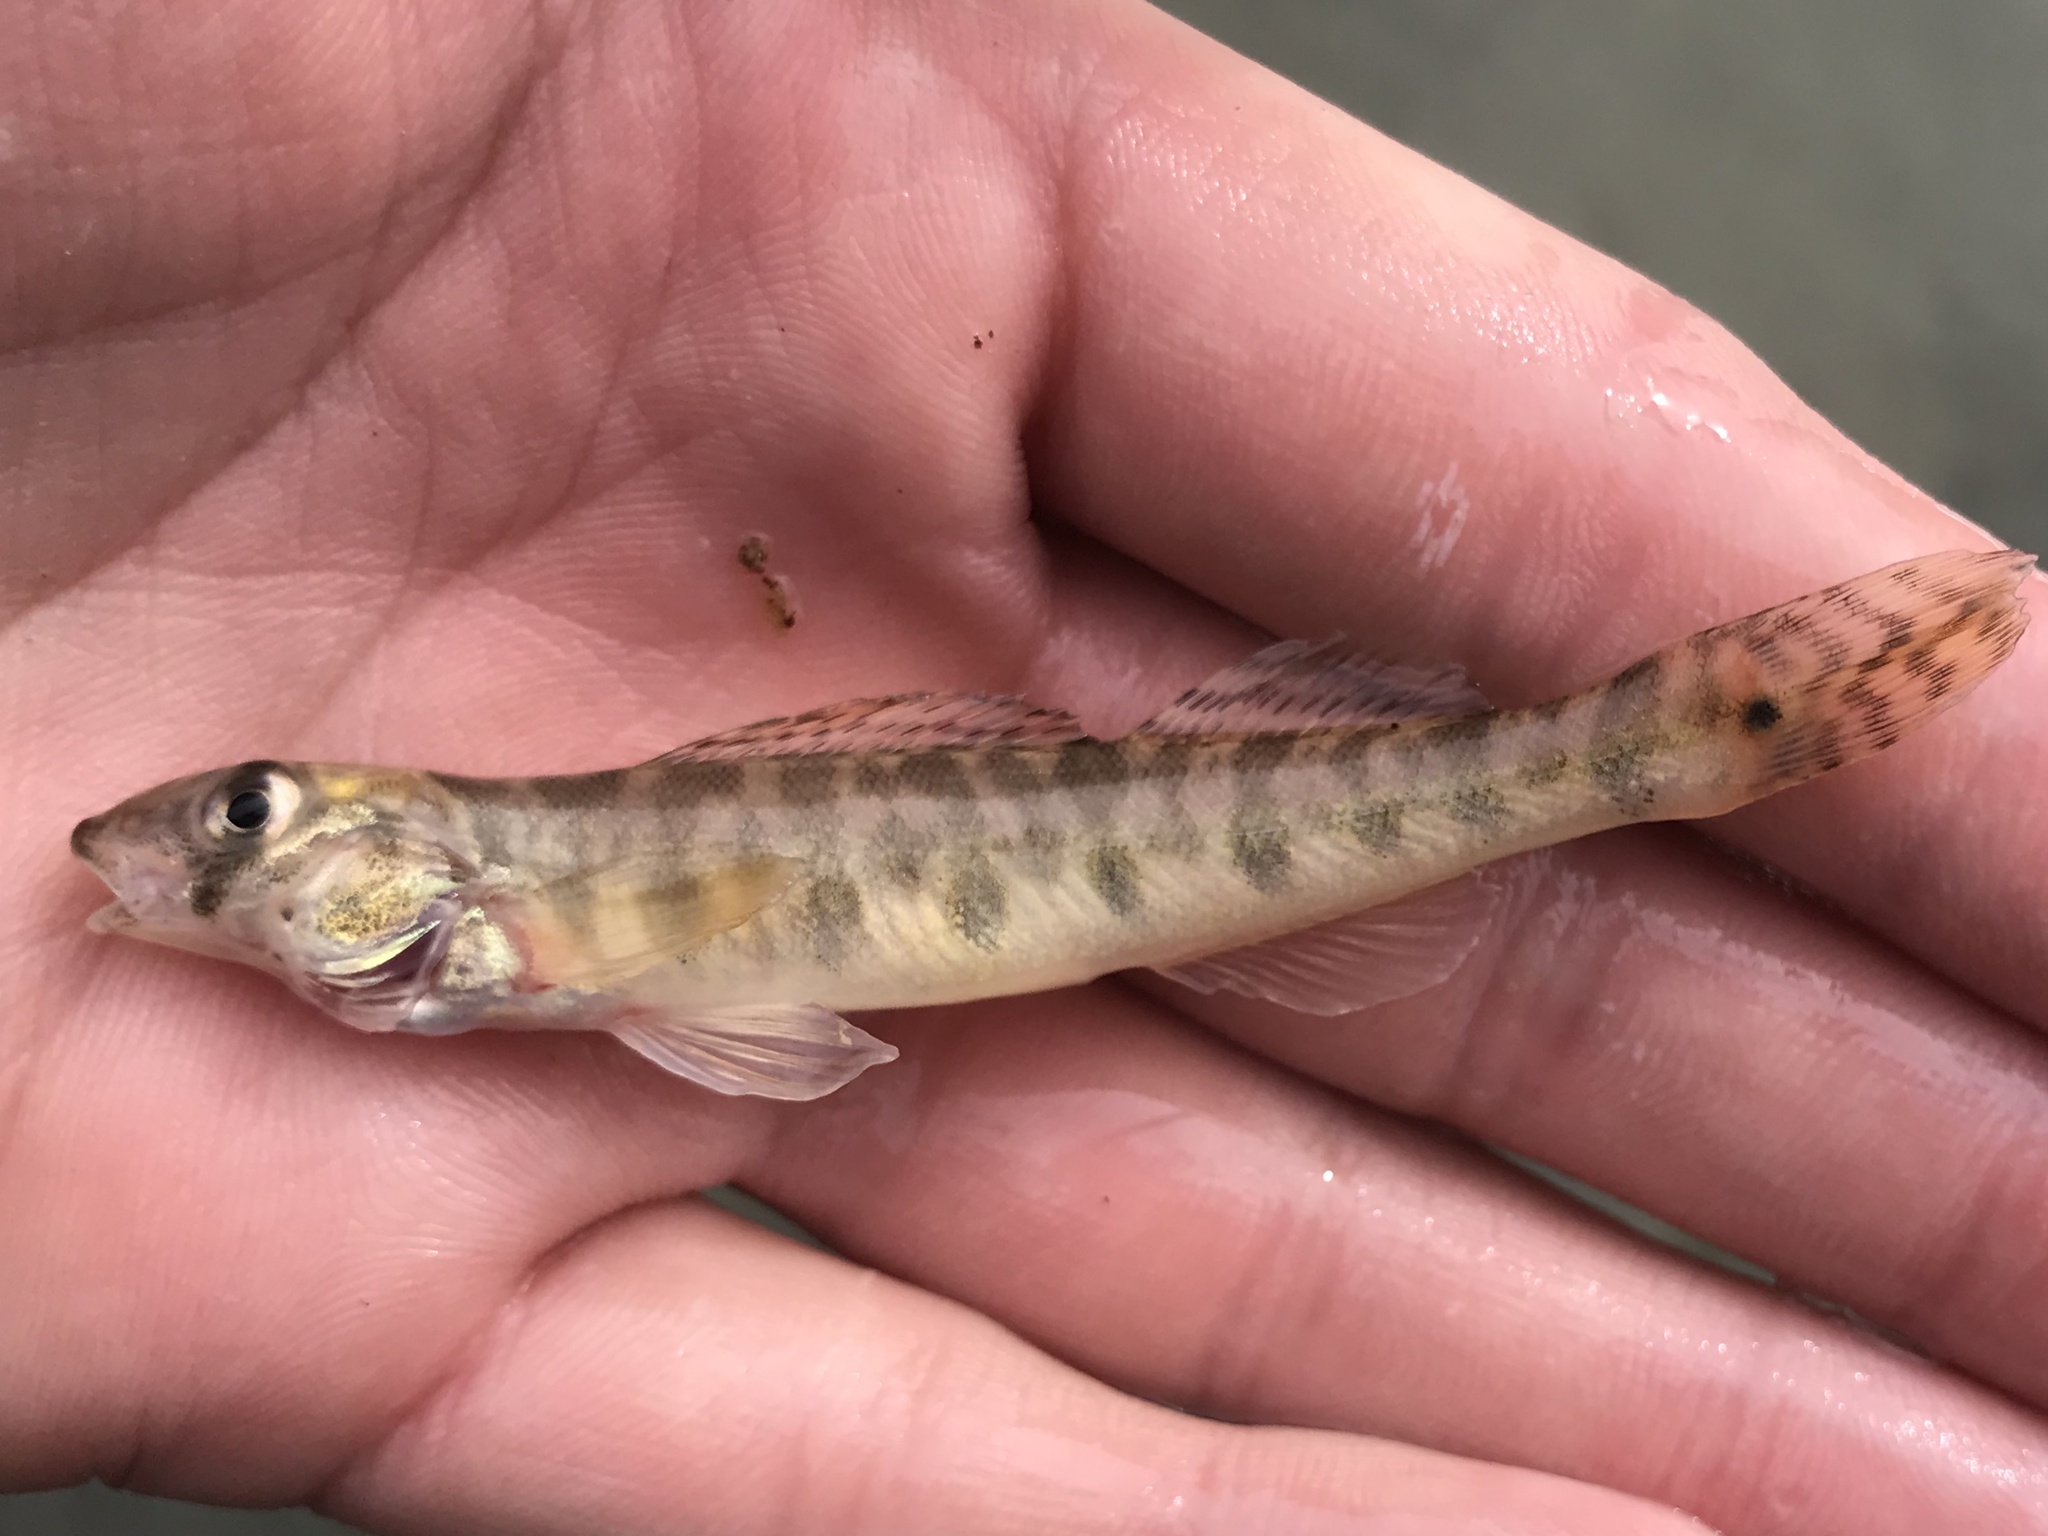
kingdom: Animalia
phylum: Chordata
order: Perciformes
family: Percidae
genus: Percina
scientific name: Percina carbonaria
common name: Texas logperch
